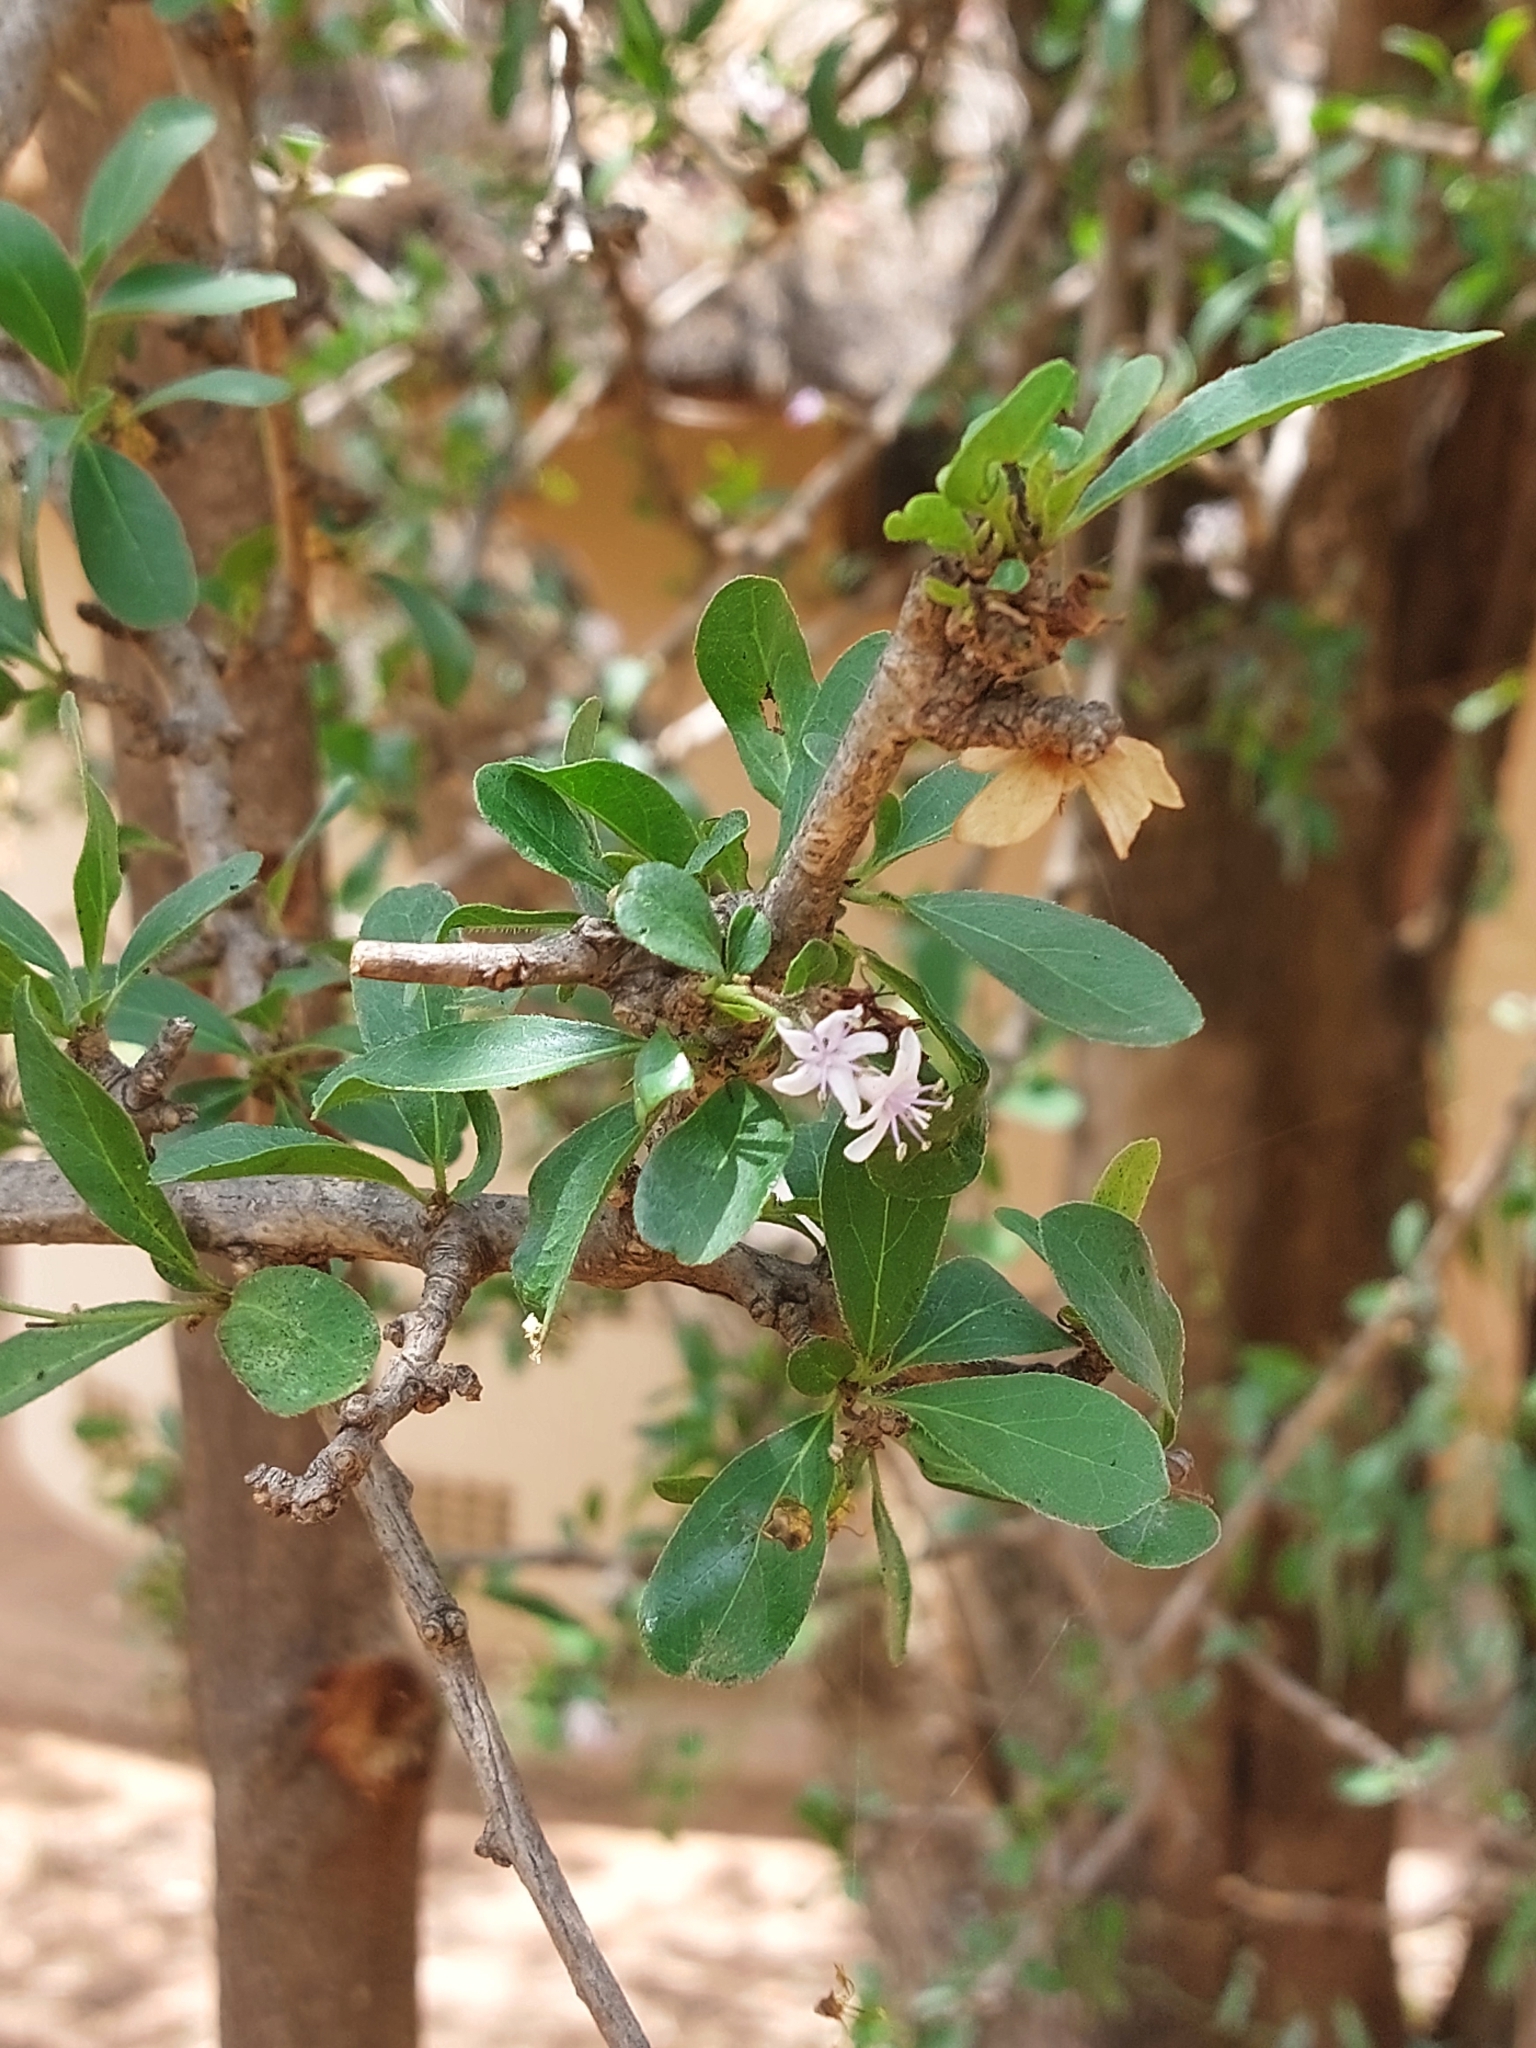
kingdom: Plantae
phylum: Tracheophyta
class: Magnoliopsida
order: Boraginales
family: Ehretiaceae
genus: Ehretia
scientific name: Ehretia rigida
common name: Cape lilac
